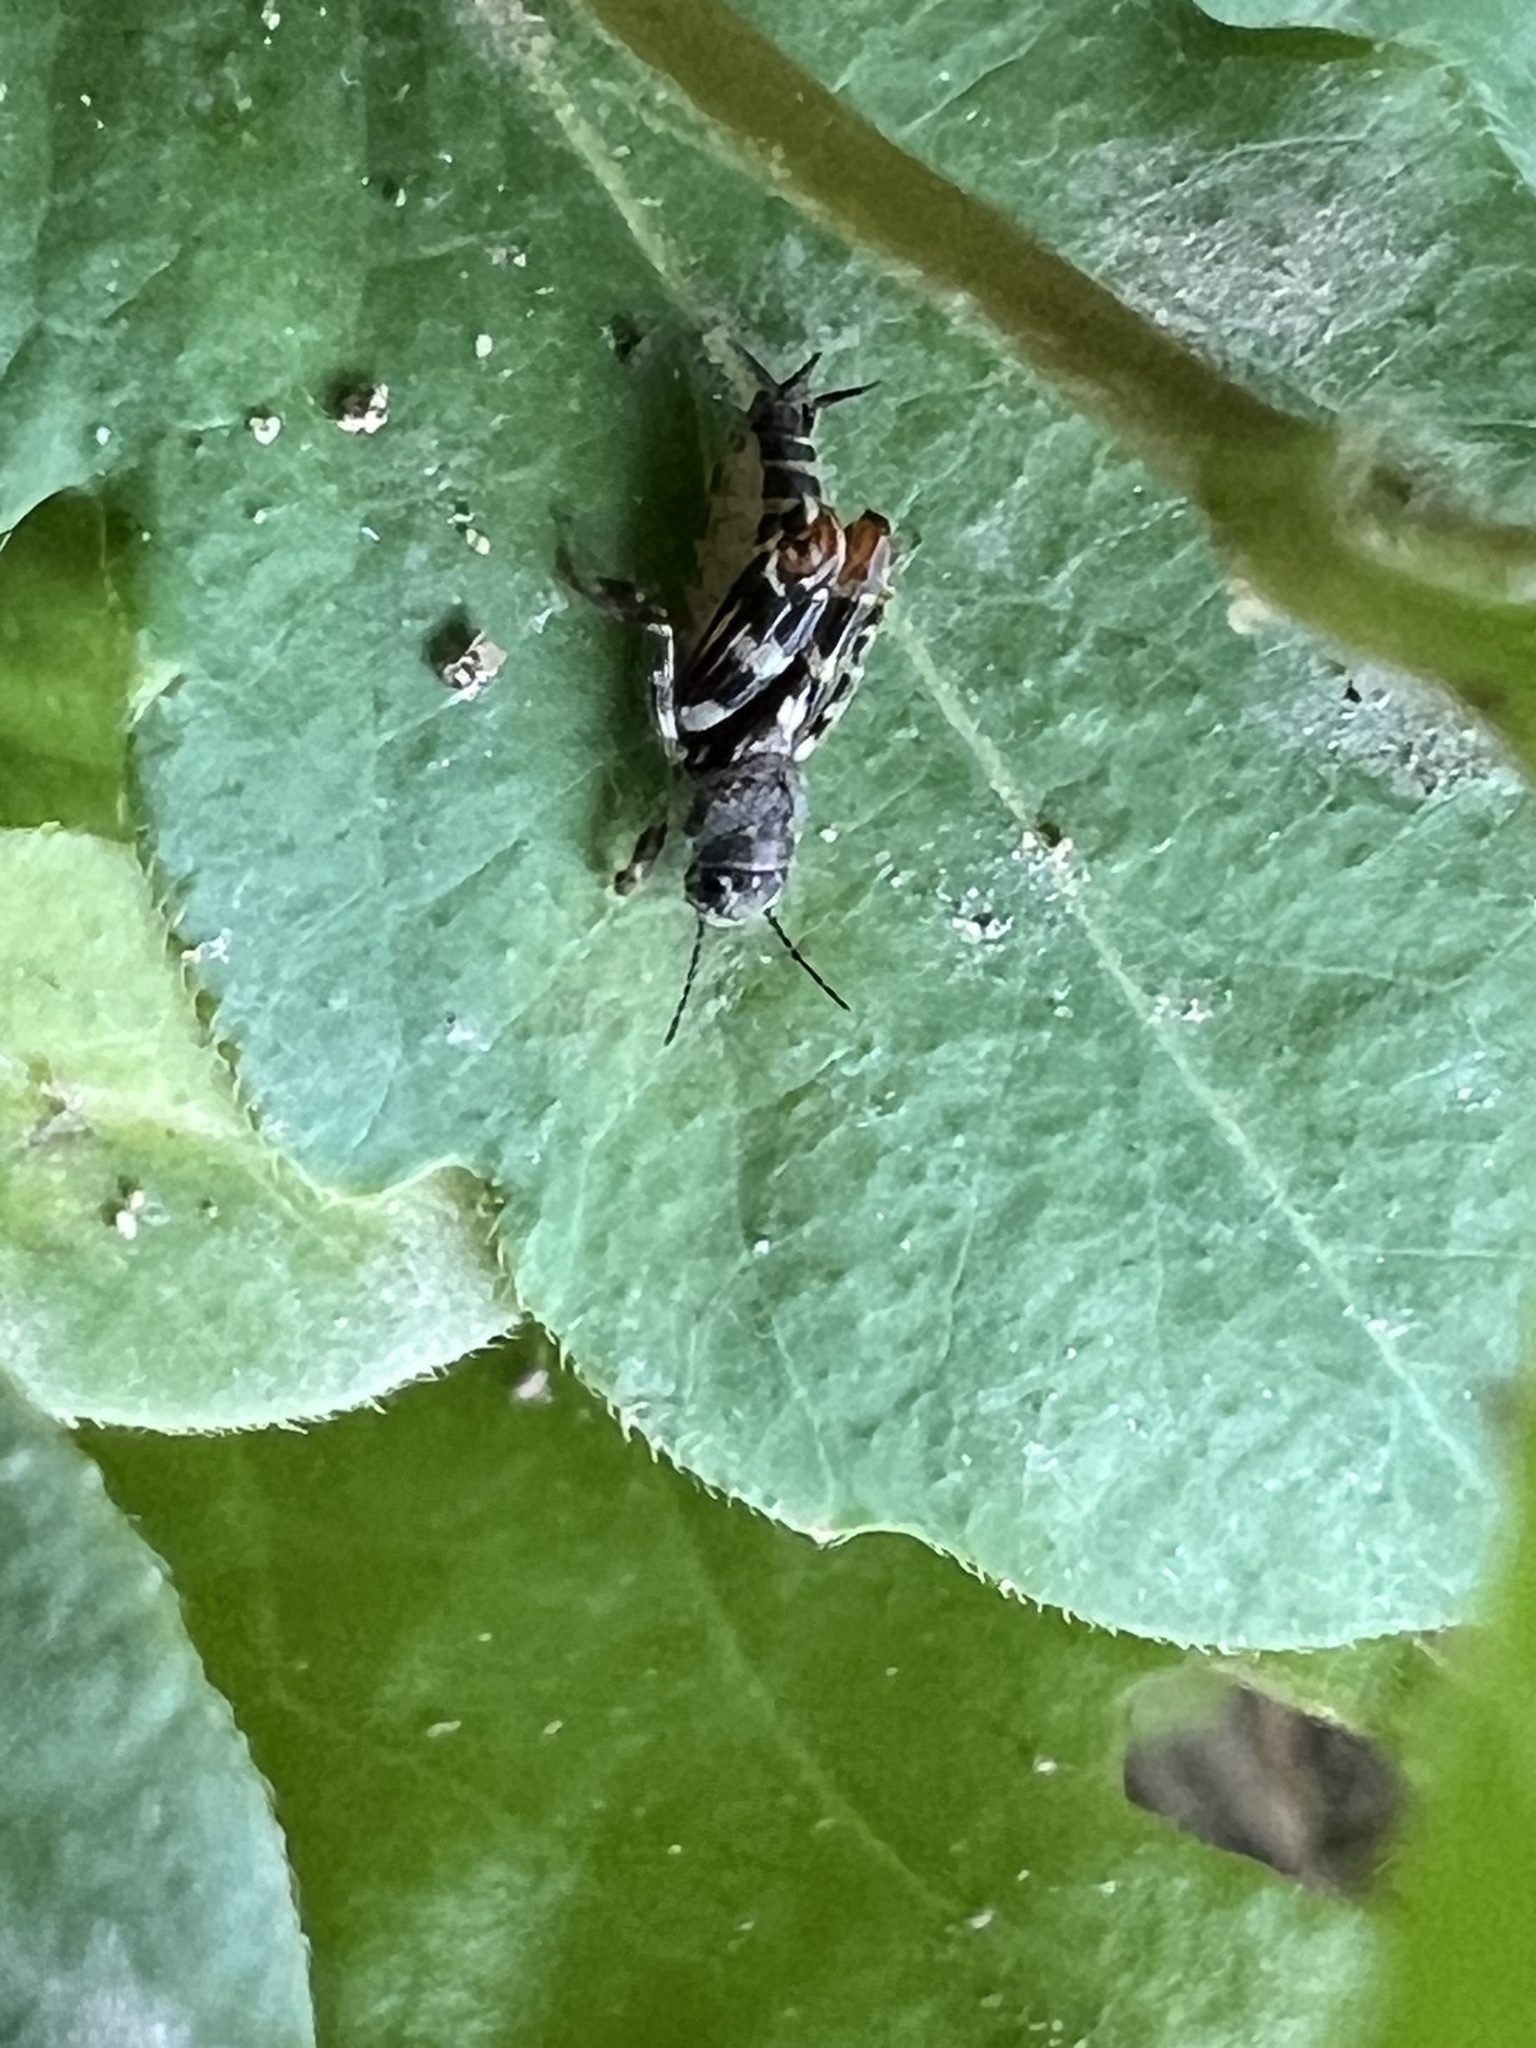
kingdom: Animalia
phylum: Arthropoda
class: Insecta
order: Orthoptera
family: Tridactylidae
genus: Ellipes
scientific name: Ellipes minuta
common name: Minute pygmy locust
